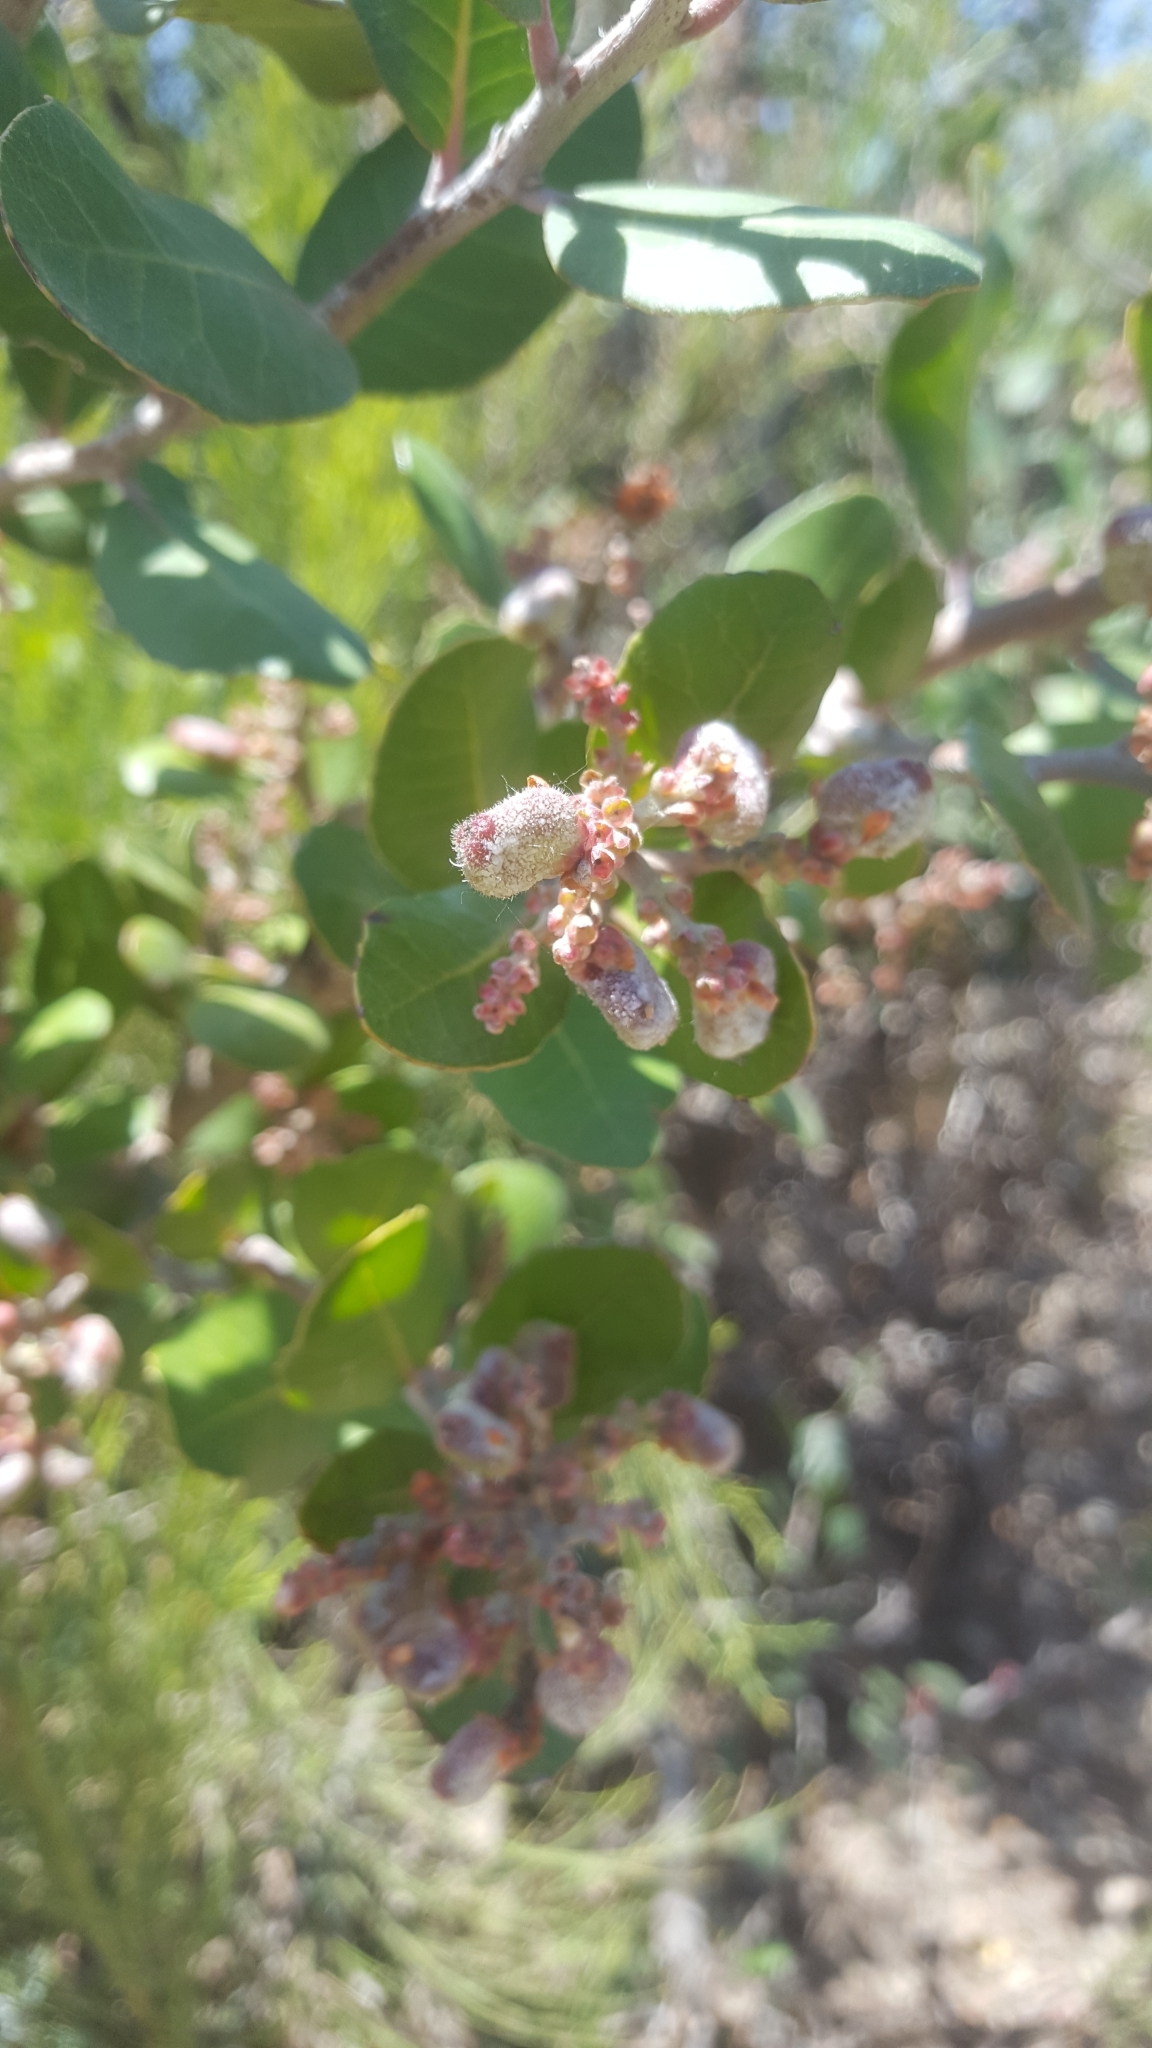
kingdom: Plantae
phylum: Tracheophyta
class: Magnoliopsida
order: Sapindales
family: Anacardiaceae
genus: Rhus
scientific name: Rhus integrifolia
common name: Lemonade sumac
